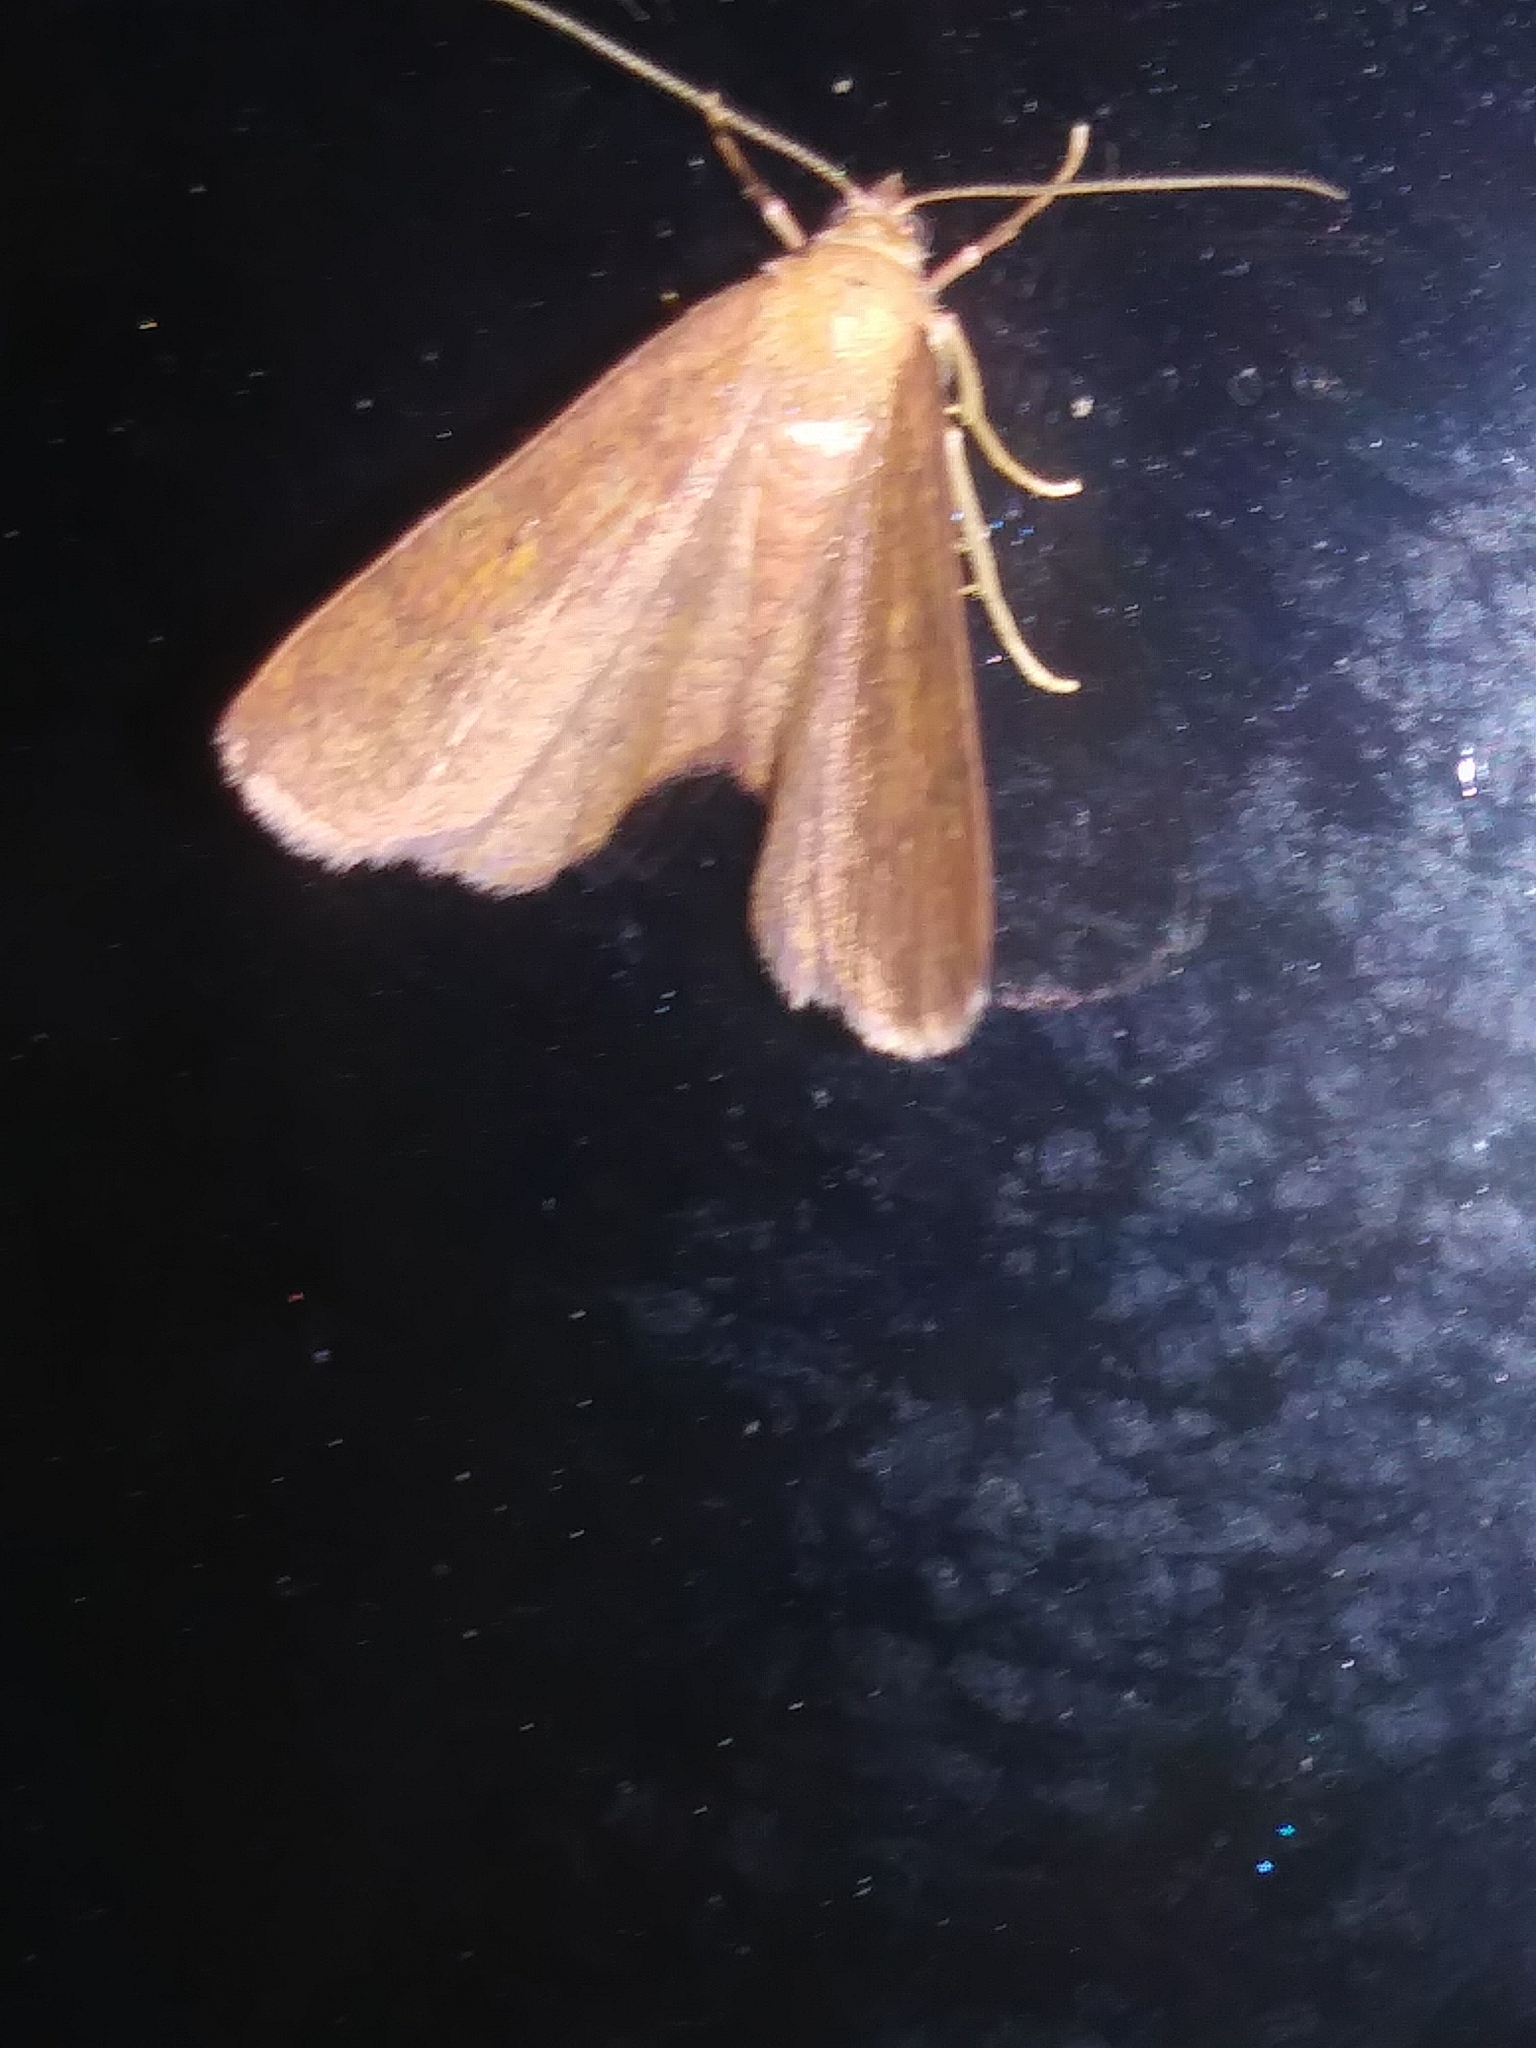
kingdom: Animalia
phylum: Arthropoda
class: Insecta
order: Lepidoptera
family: Geometridae
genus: Ilexia
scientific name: Ilexia intractata
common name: Black-dotted ruddy moth
